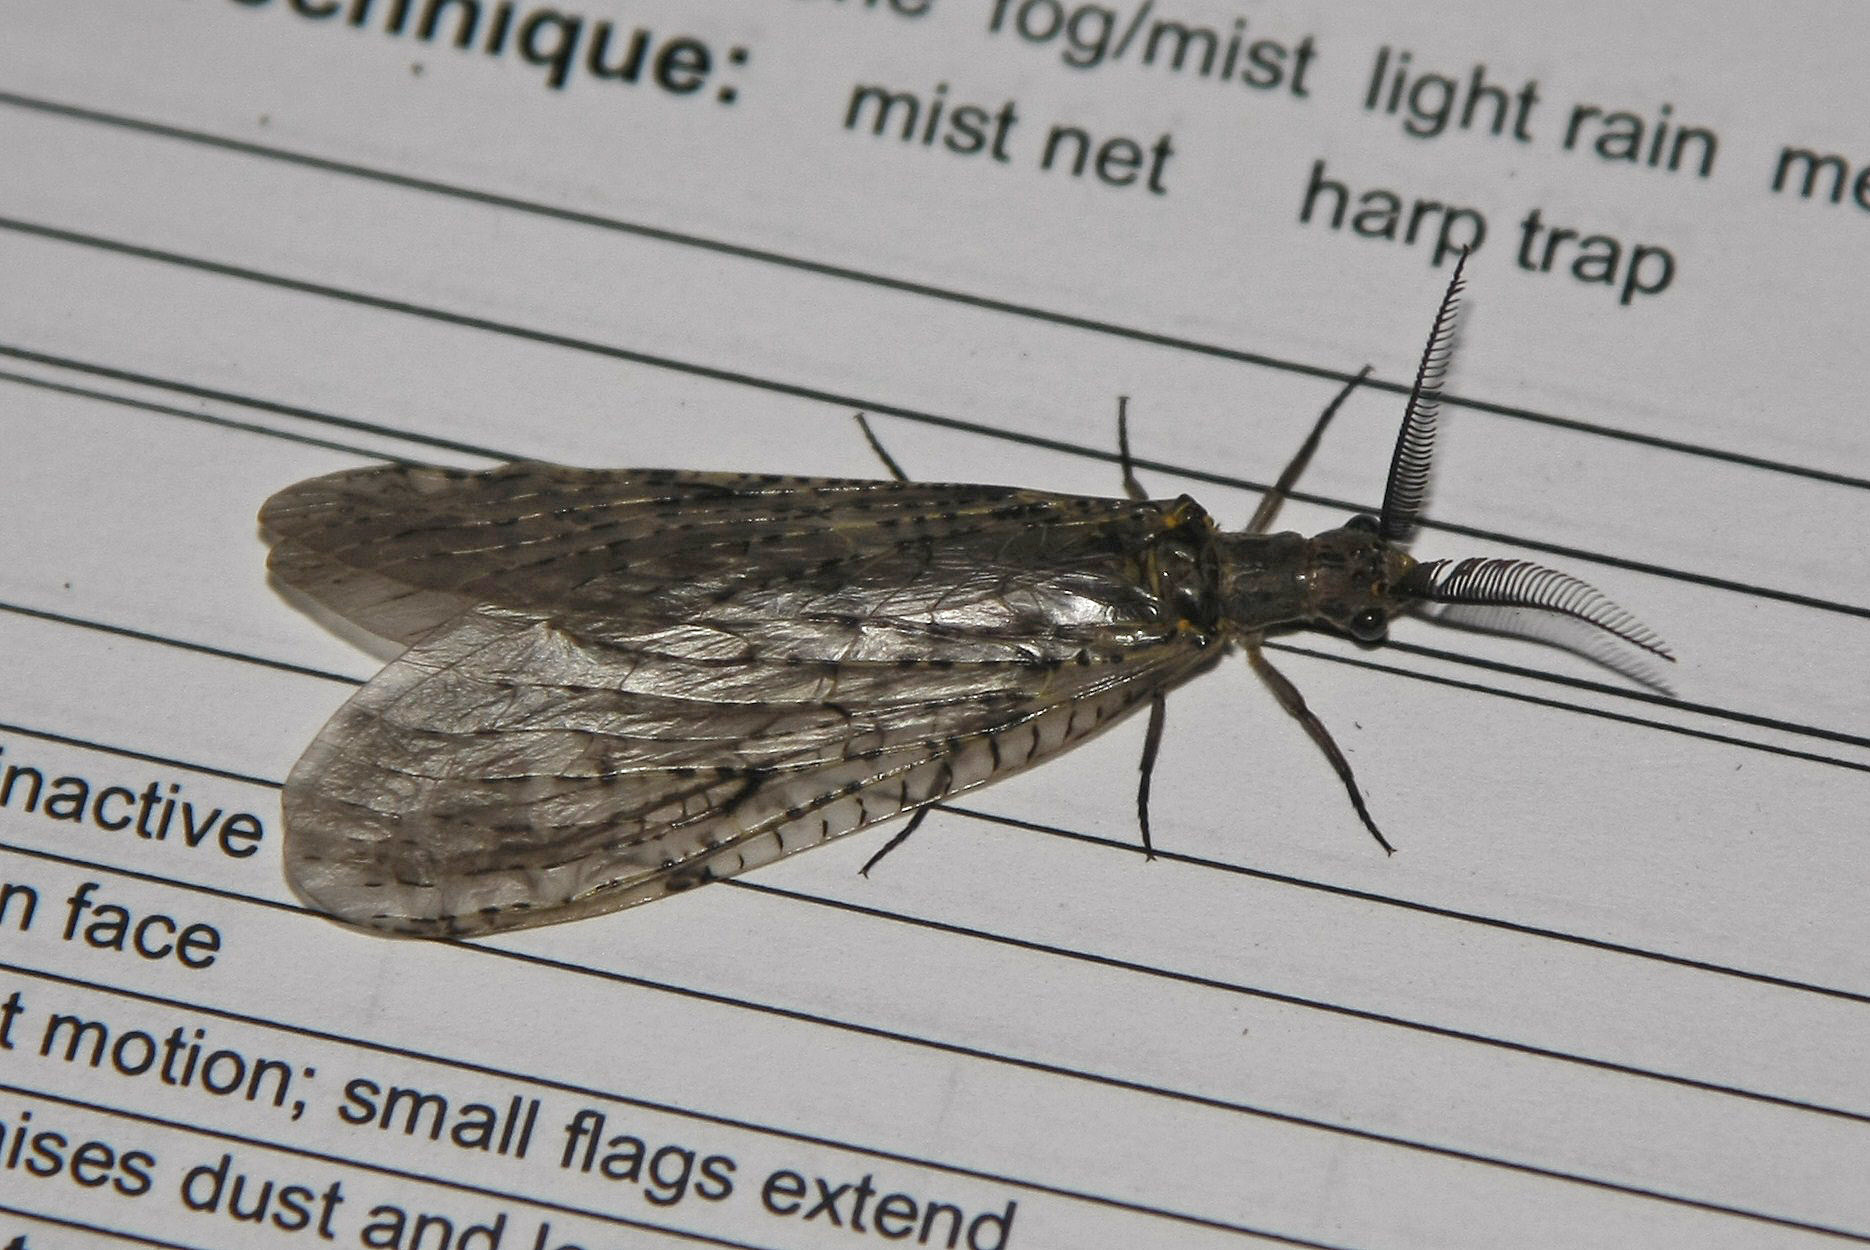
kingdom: Animalia
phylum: Arthropoda
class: Insecta
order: Megaloptera
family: Corydalidae
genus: Chauliodes
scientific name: Chauliodes rastricornis
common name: Spring fishfly
